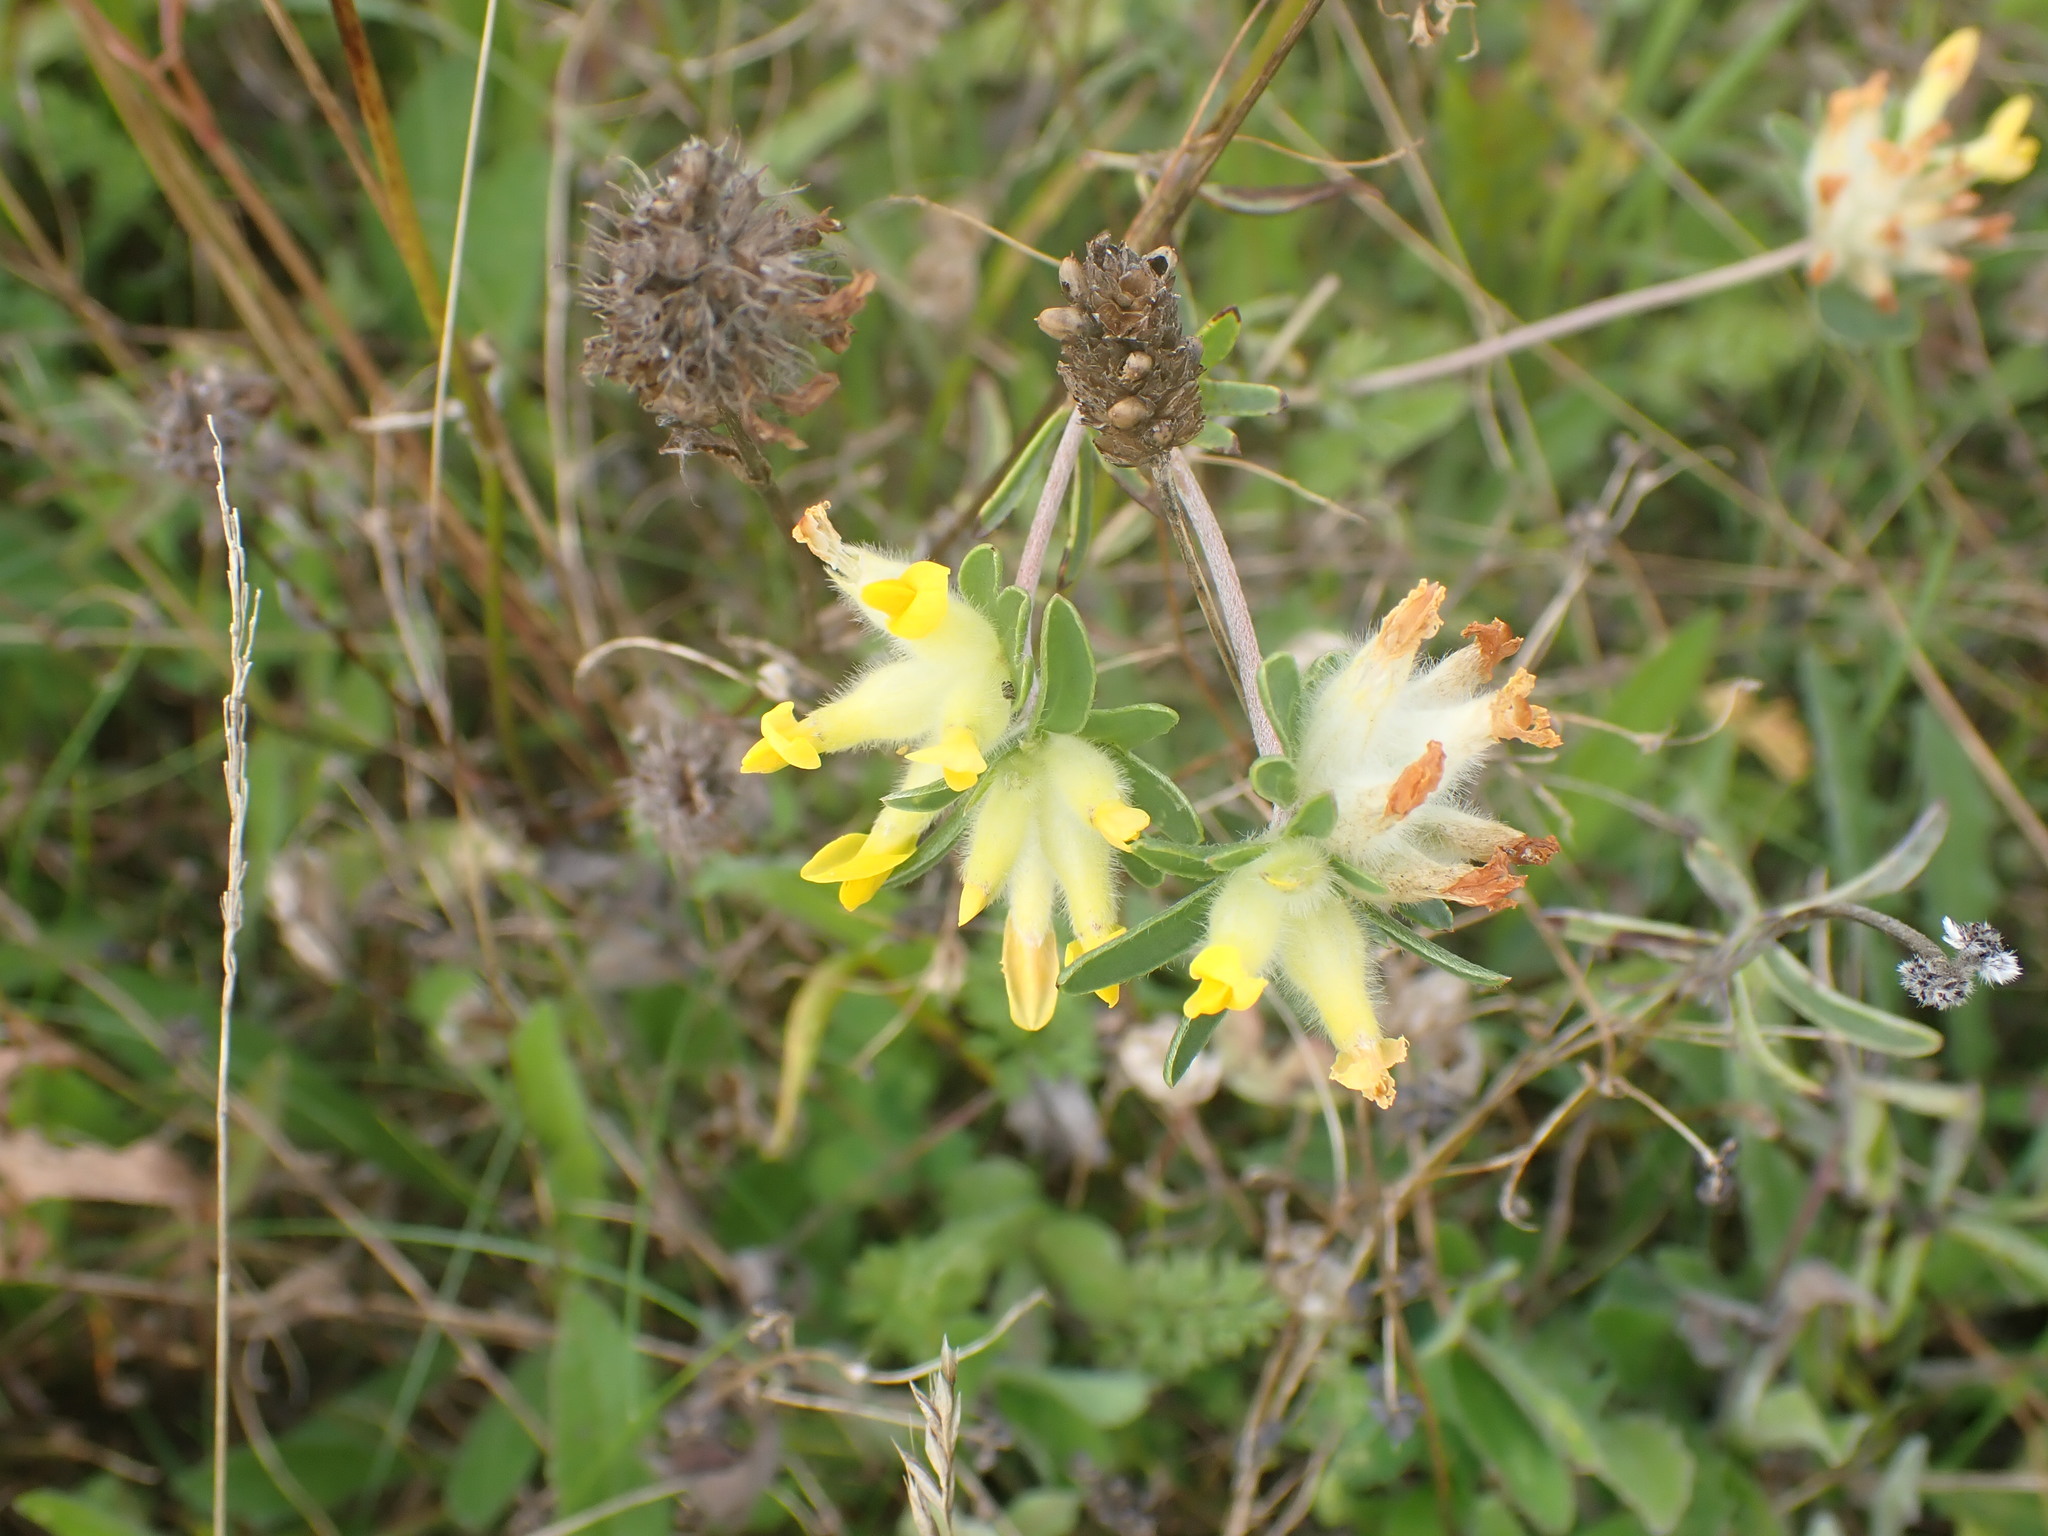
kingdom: Plantae
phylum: Tracheophyta
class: Magnoliopsida
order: Fabales
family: Fabaceae
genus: Anthyllis
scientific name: Anthyllis vulneraria
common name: Kidney vetch
